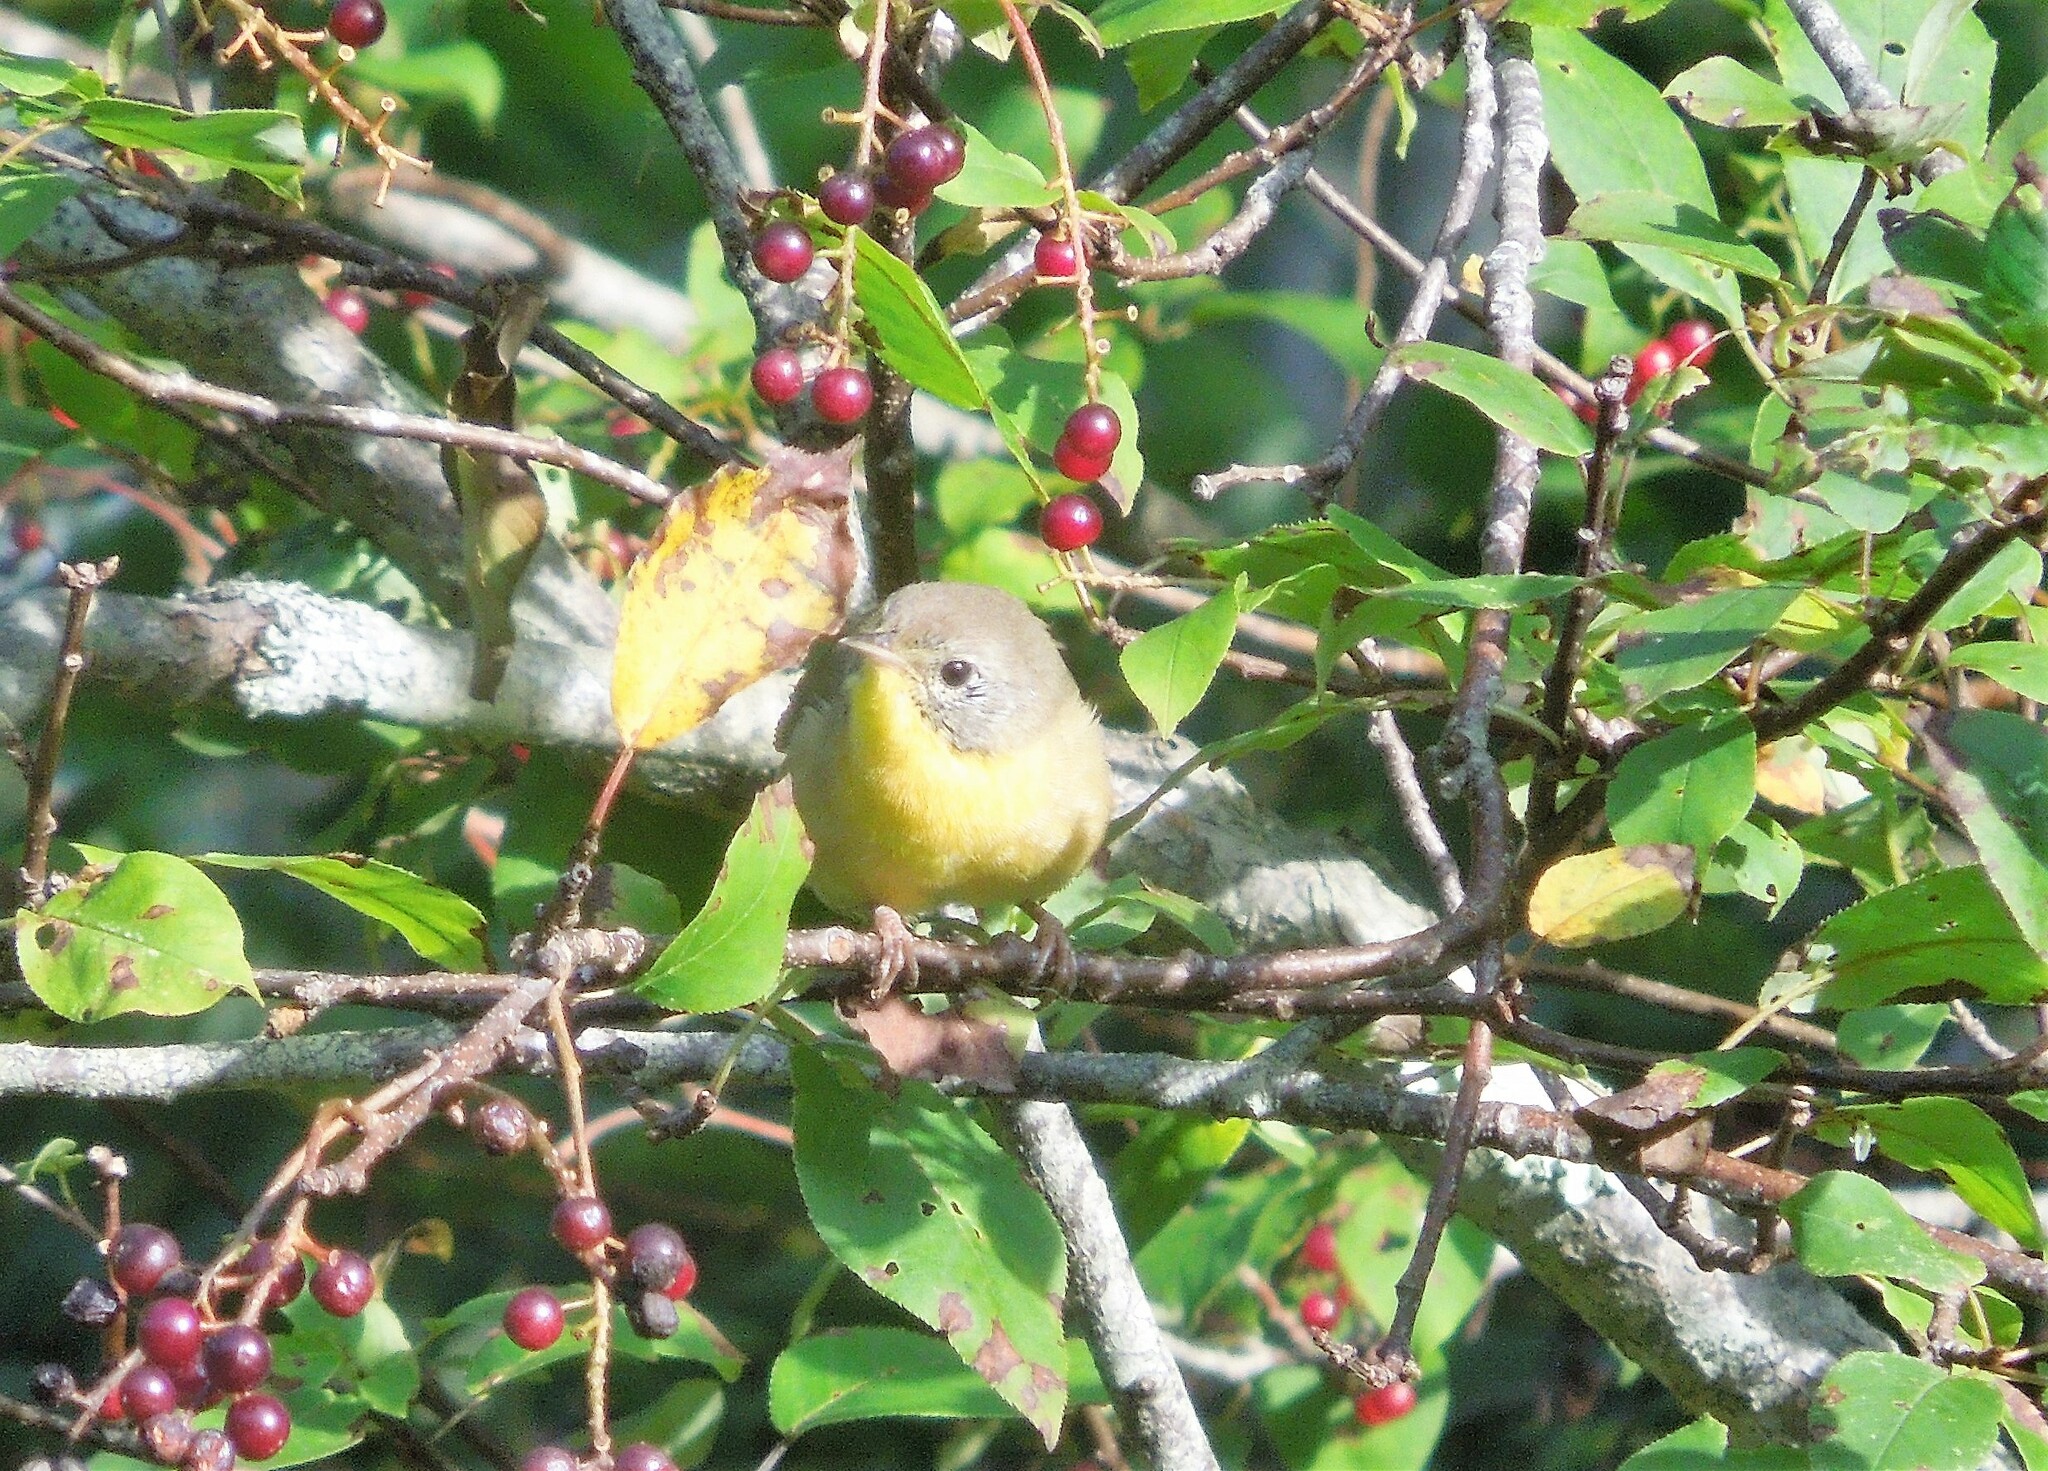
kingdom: Animalia
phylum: Chordata
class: Aves
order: Passeriformes
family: Parulidae
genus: Geothlypis
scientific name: Geothlypis trichas
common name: Common yellowthroat
